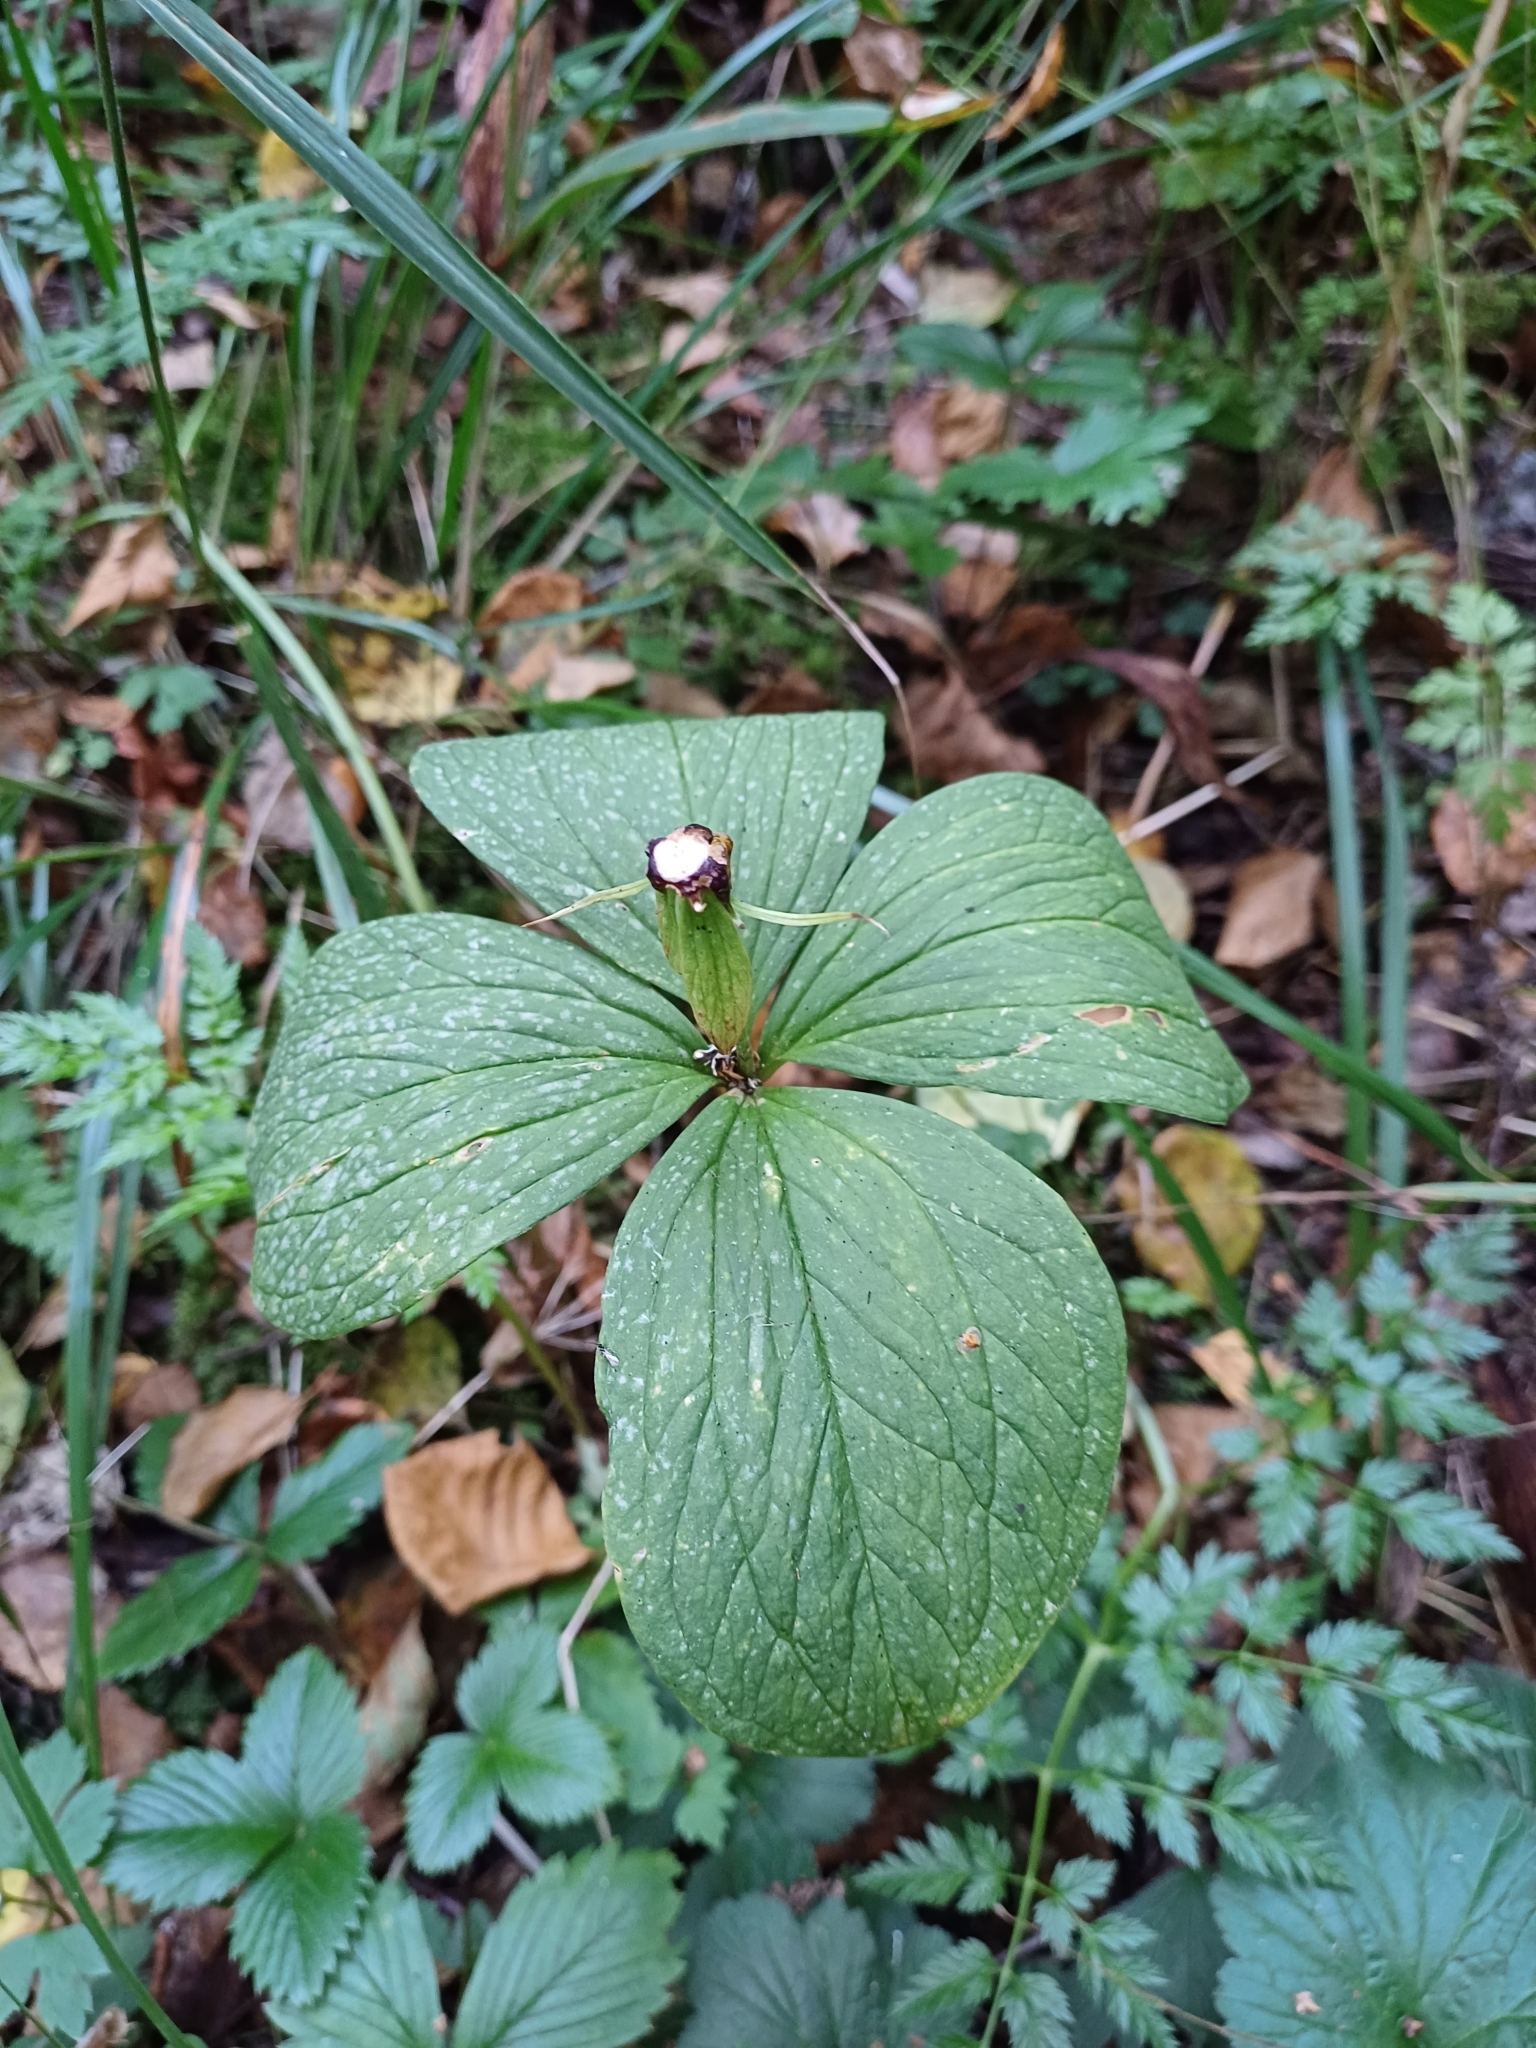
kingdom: Plantae
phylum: Tracheophyta
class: Liliopsida
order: Liliales
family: Melanthiaceae
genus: Paris
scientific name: Paris quadrifolia
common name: Herb-paris
